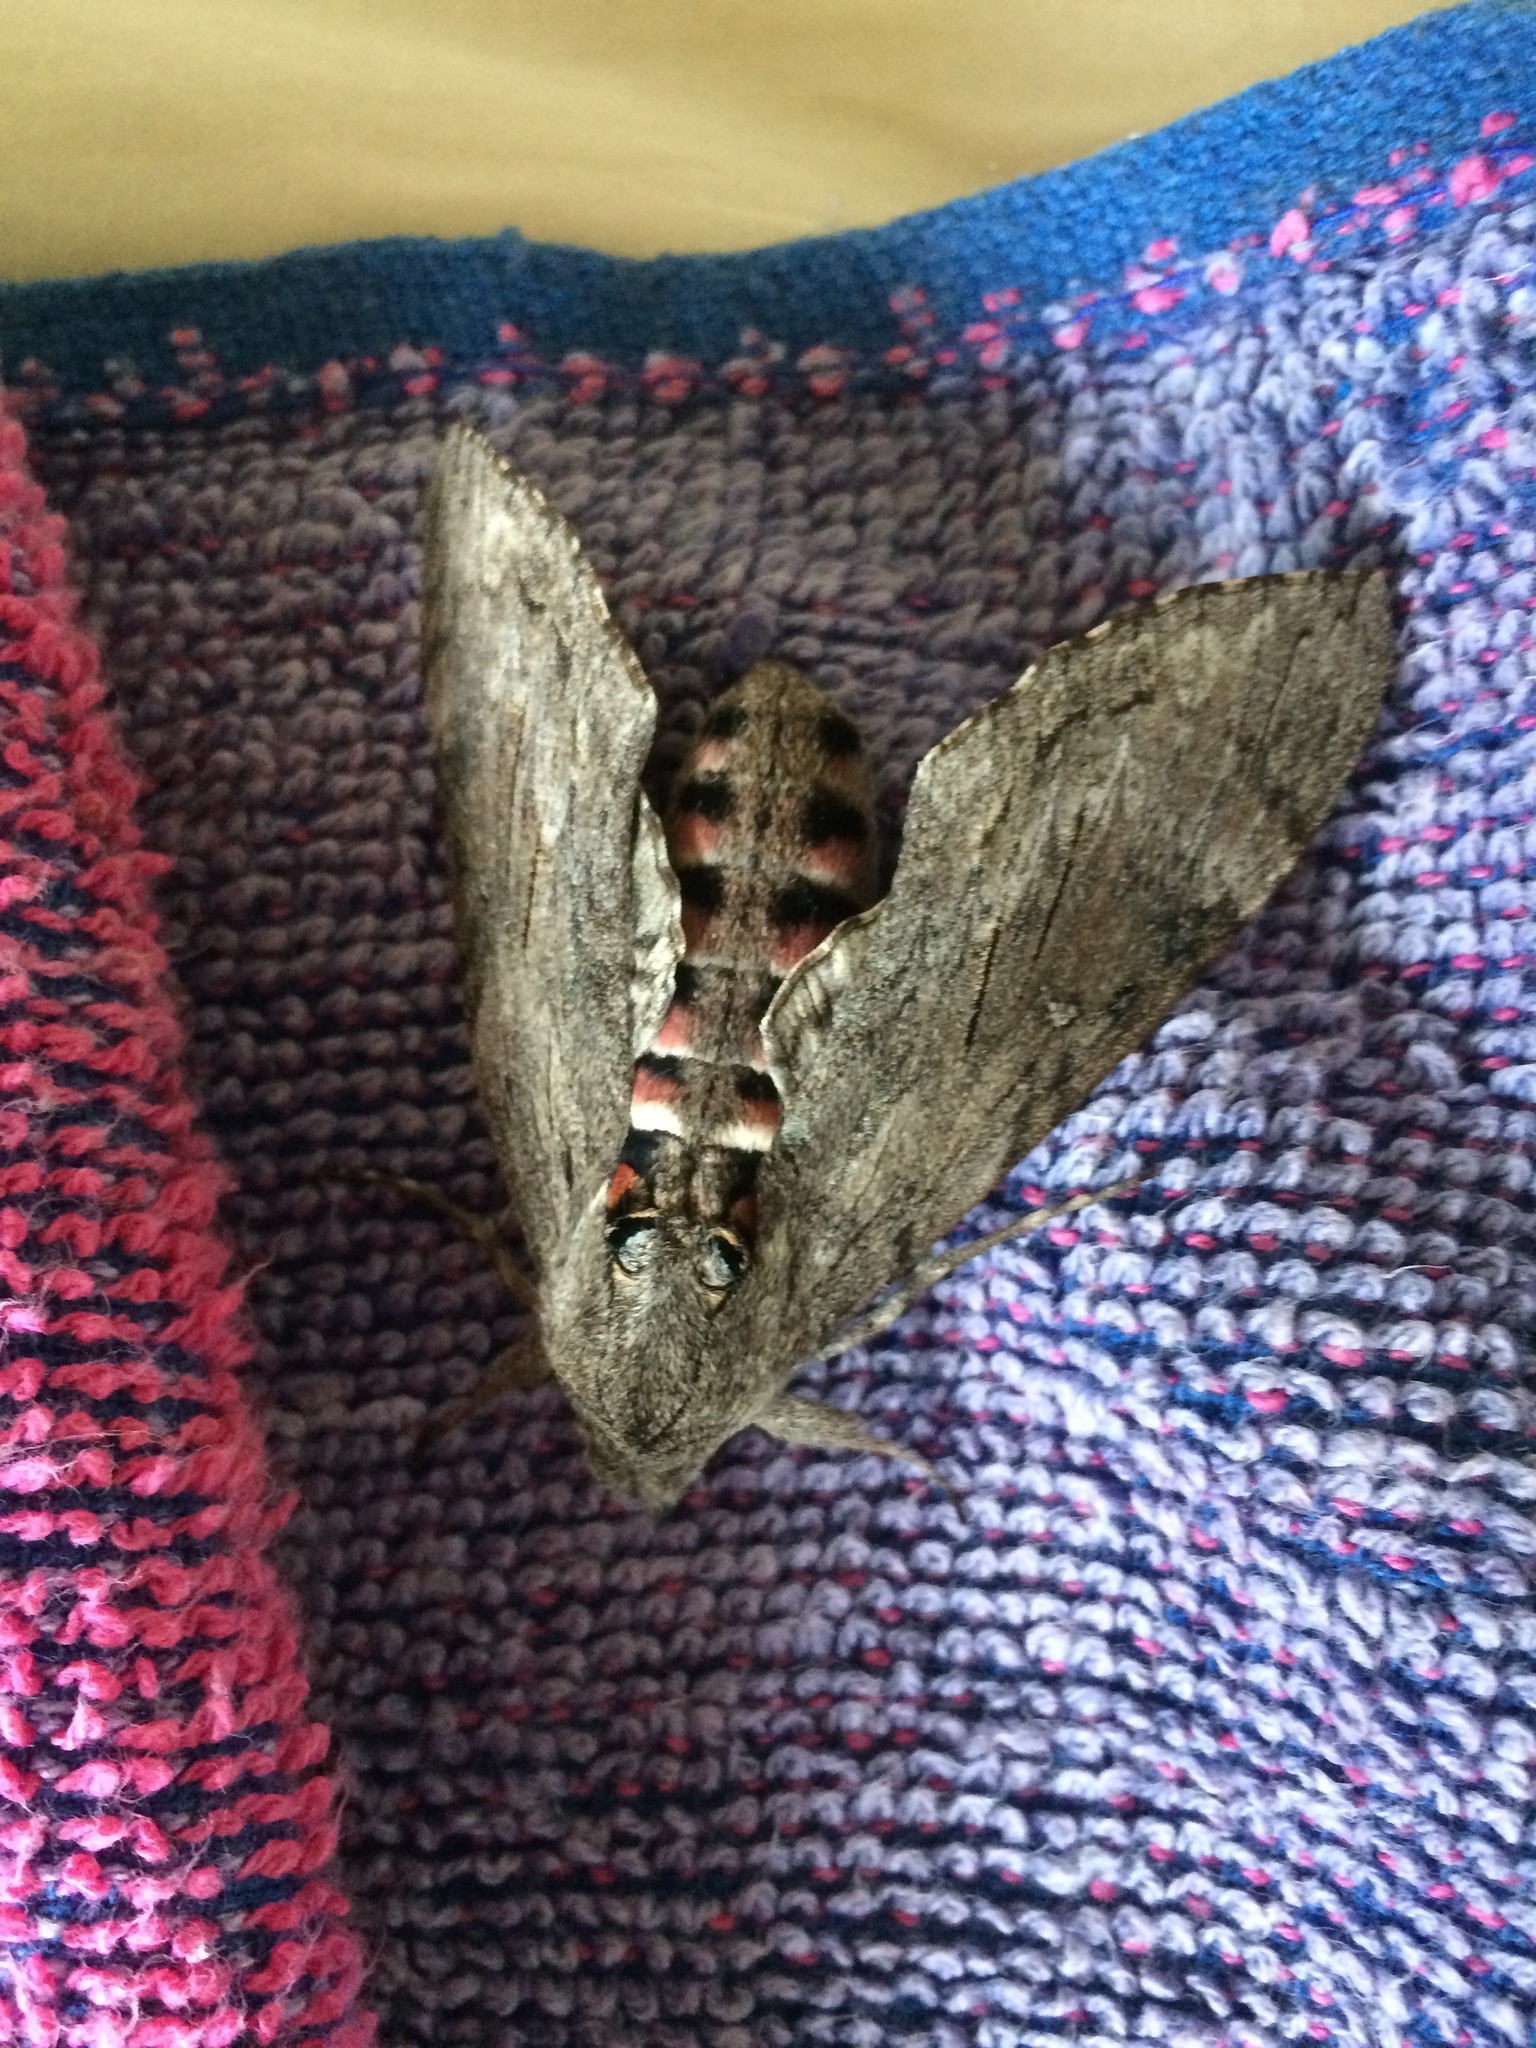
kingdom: Animalia
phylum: Arthropoda
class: Insecta
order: Lepidoptera
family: Sphingidae
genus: Agrius
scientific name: Agrius convolvuli
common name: Convolvulus hawkmoth
